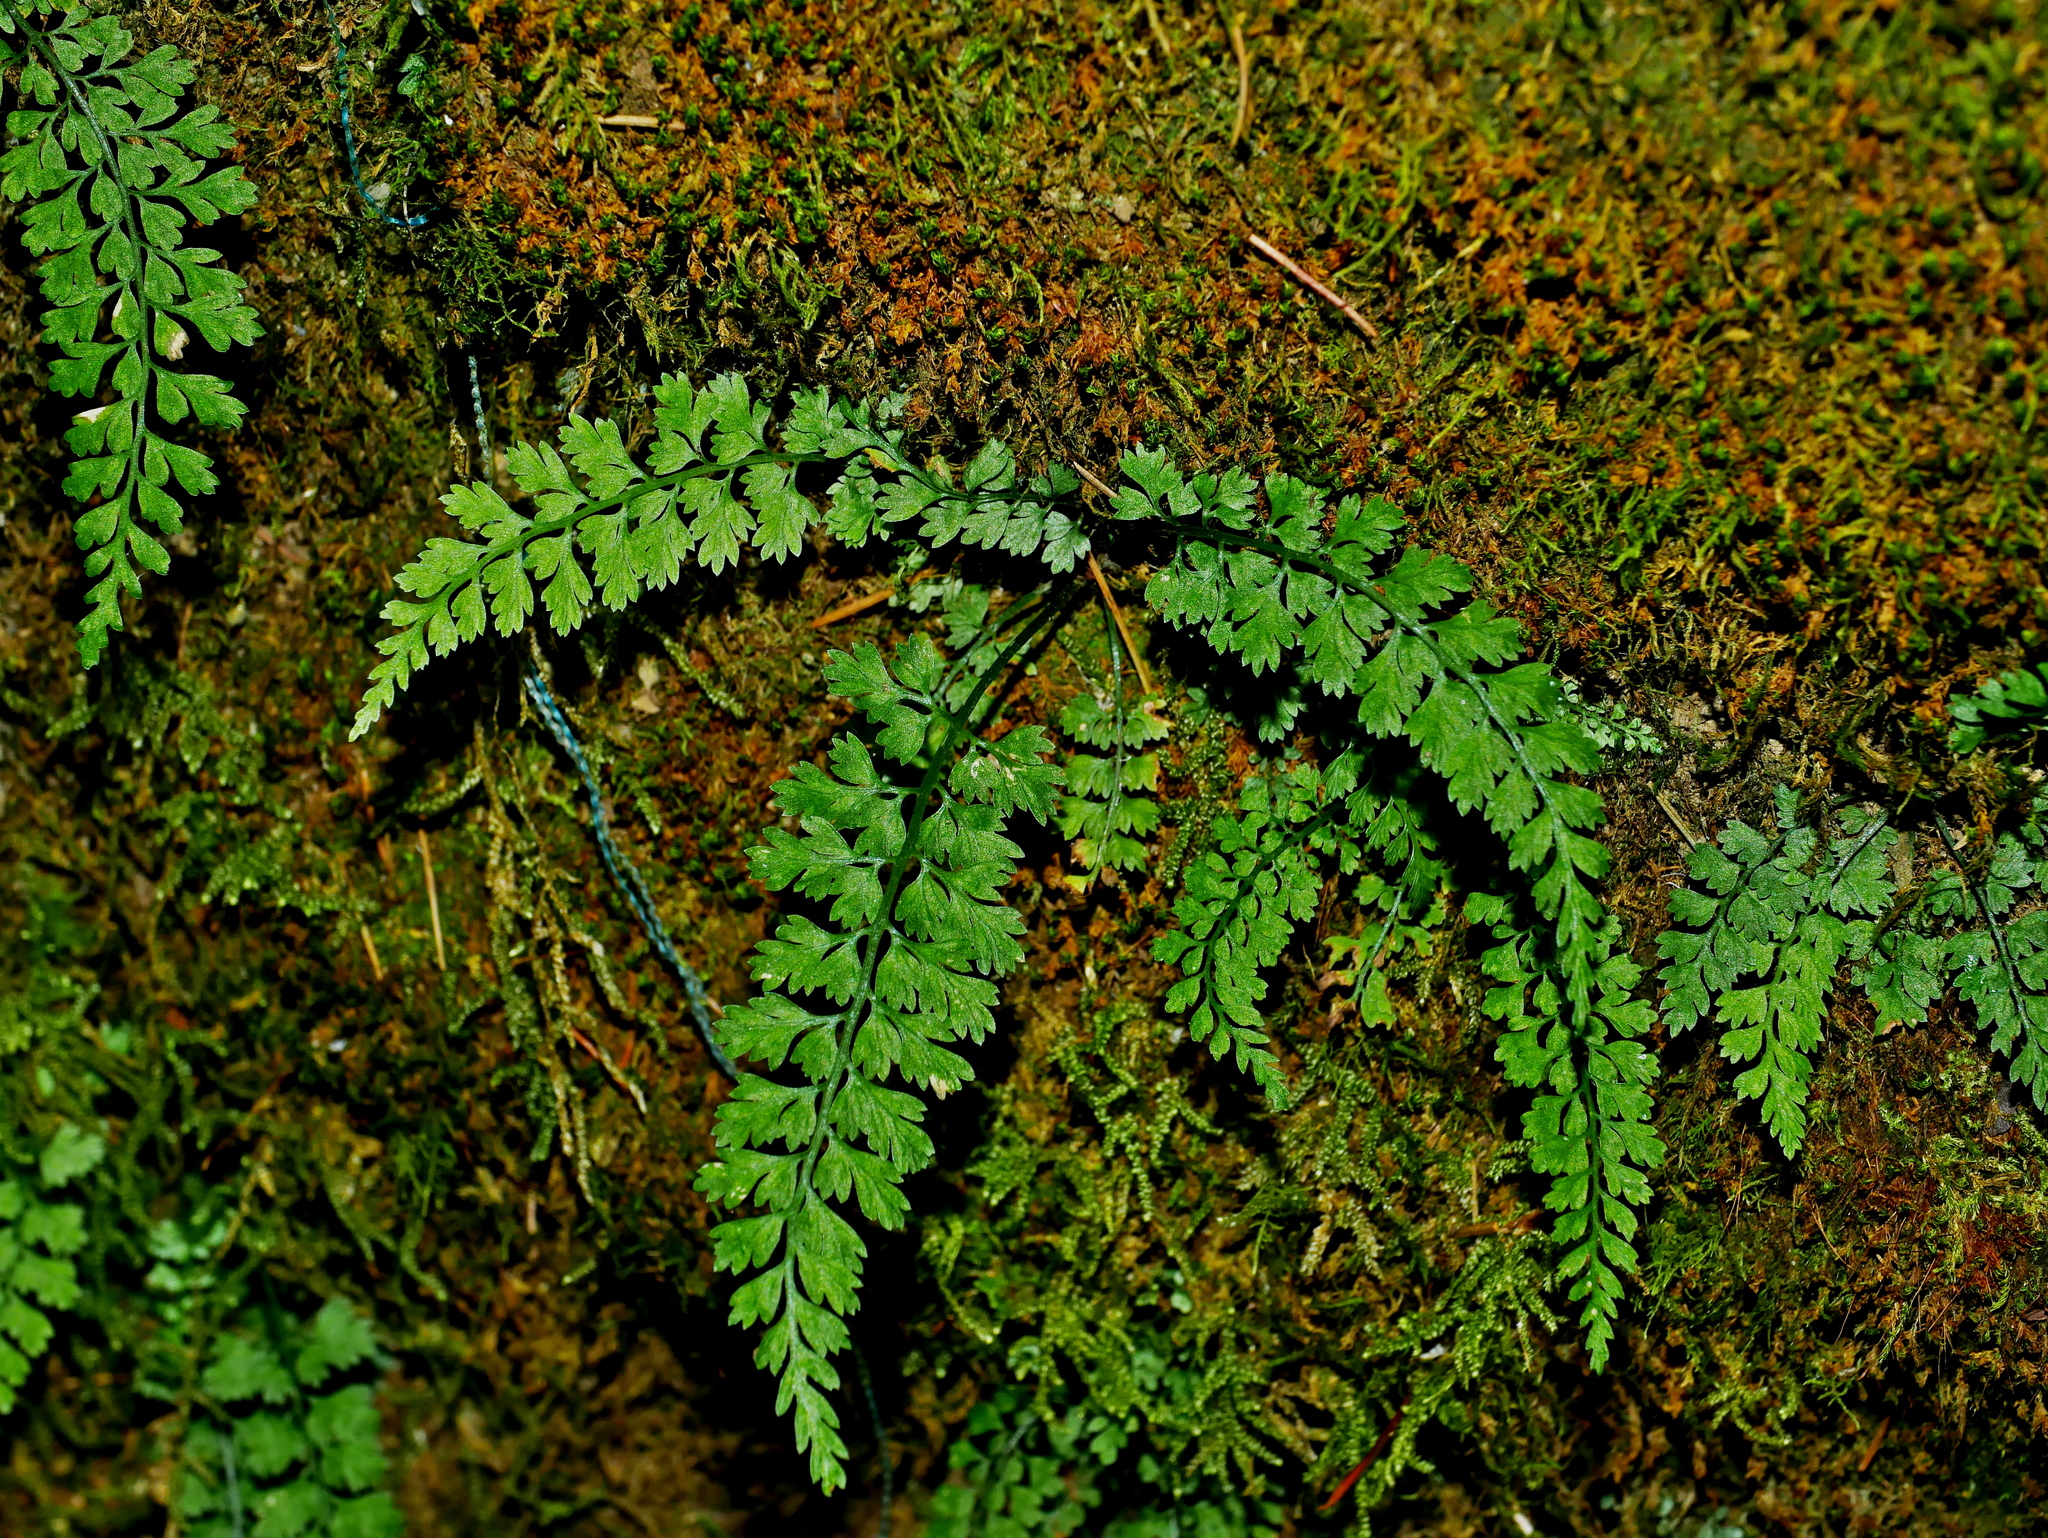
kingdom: Plantae
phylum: Tracheophyta
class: Polypodiopsida
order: Polypodiales
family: Aspleniaceae
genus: Asplenium
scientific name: Asplenium laciniatum
